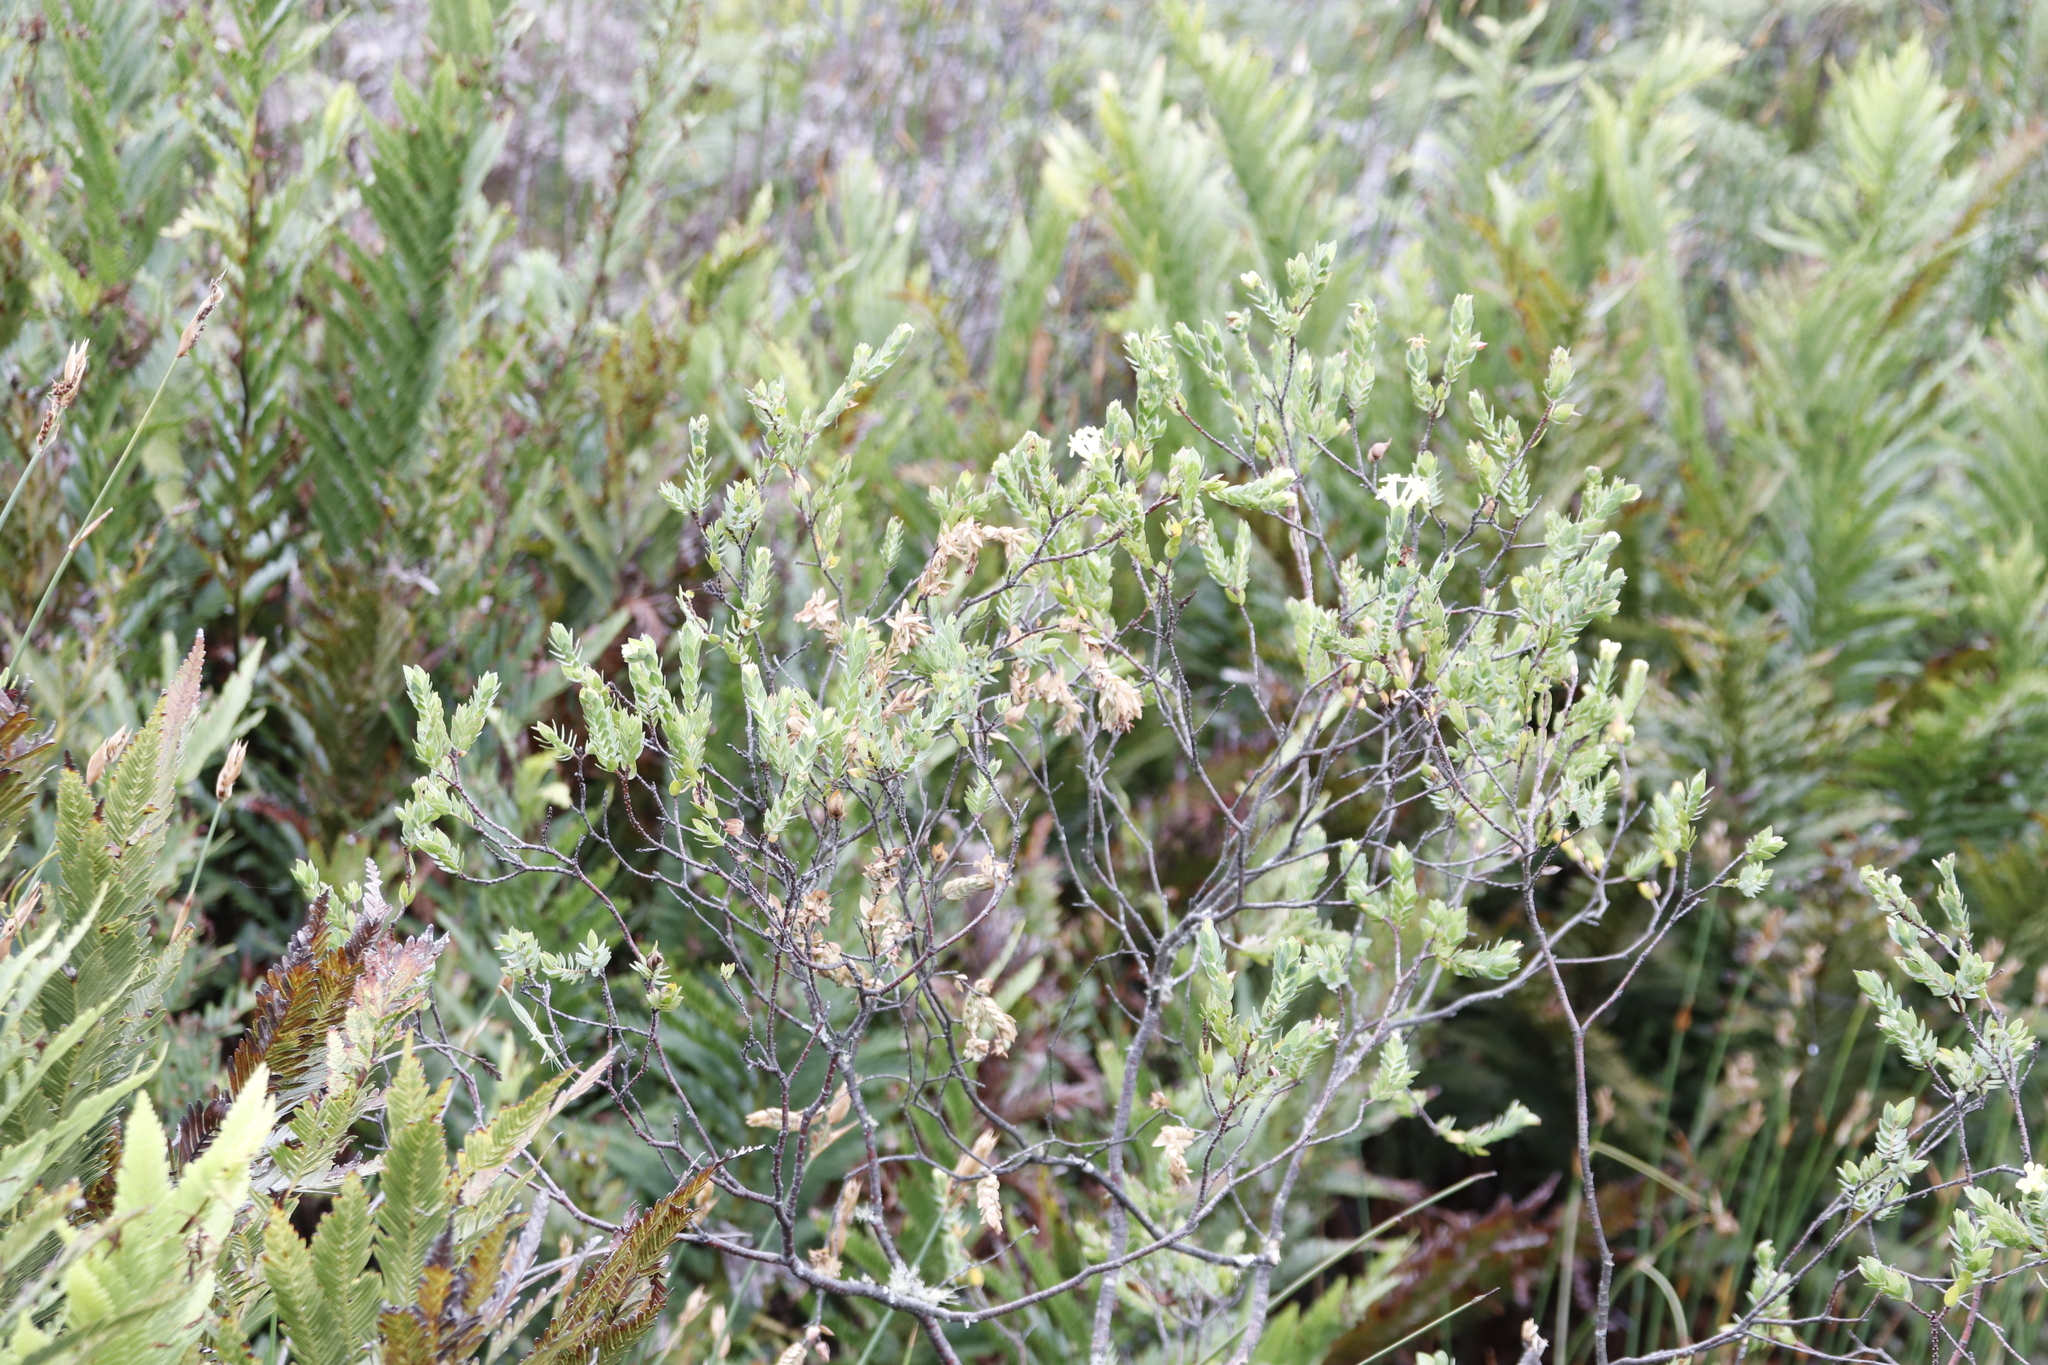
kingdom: Plantae
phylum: Tracheophyta
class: Magnoliopsida
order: Malvales
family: Thymelaeaceae
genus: Gnidia
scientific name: Gnidia oppositifolia
